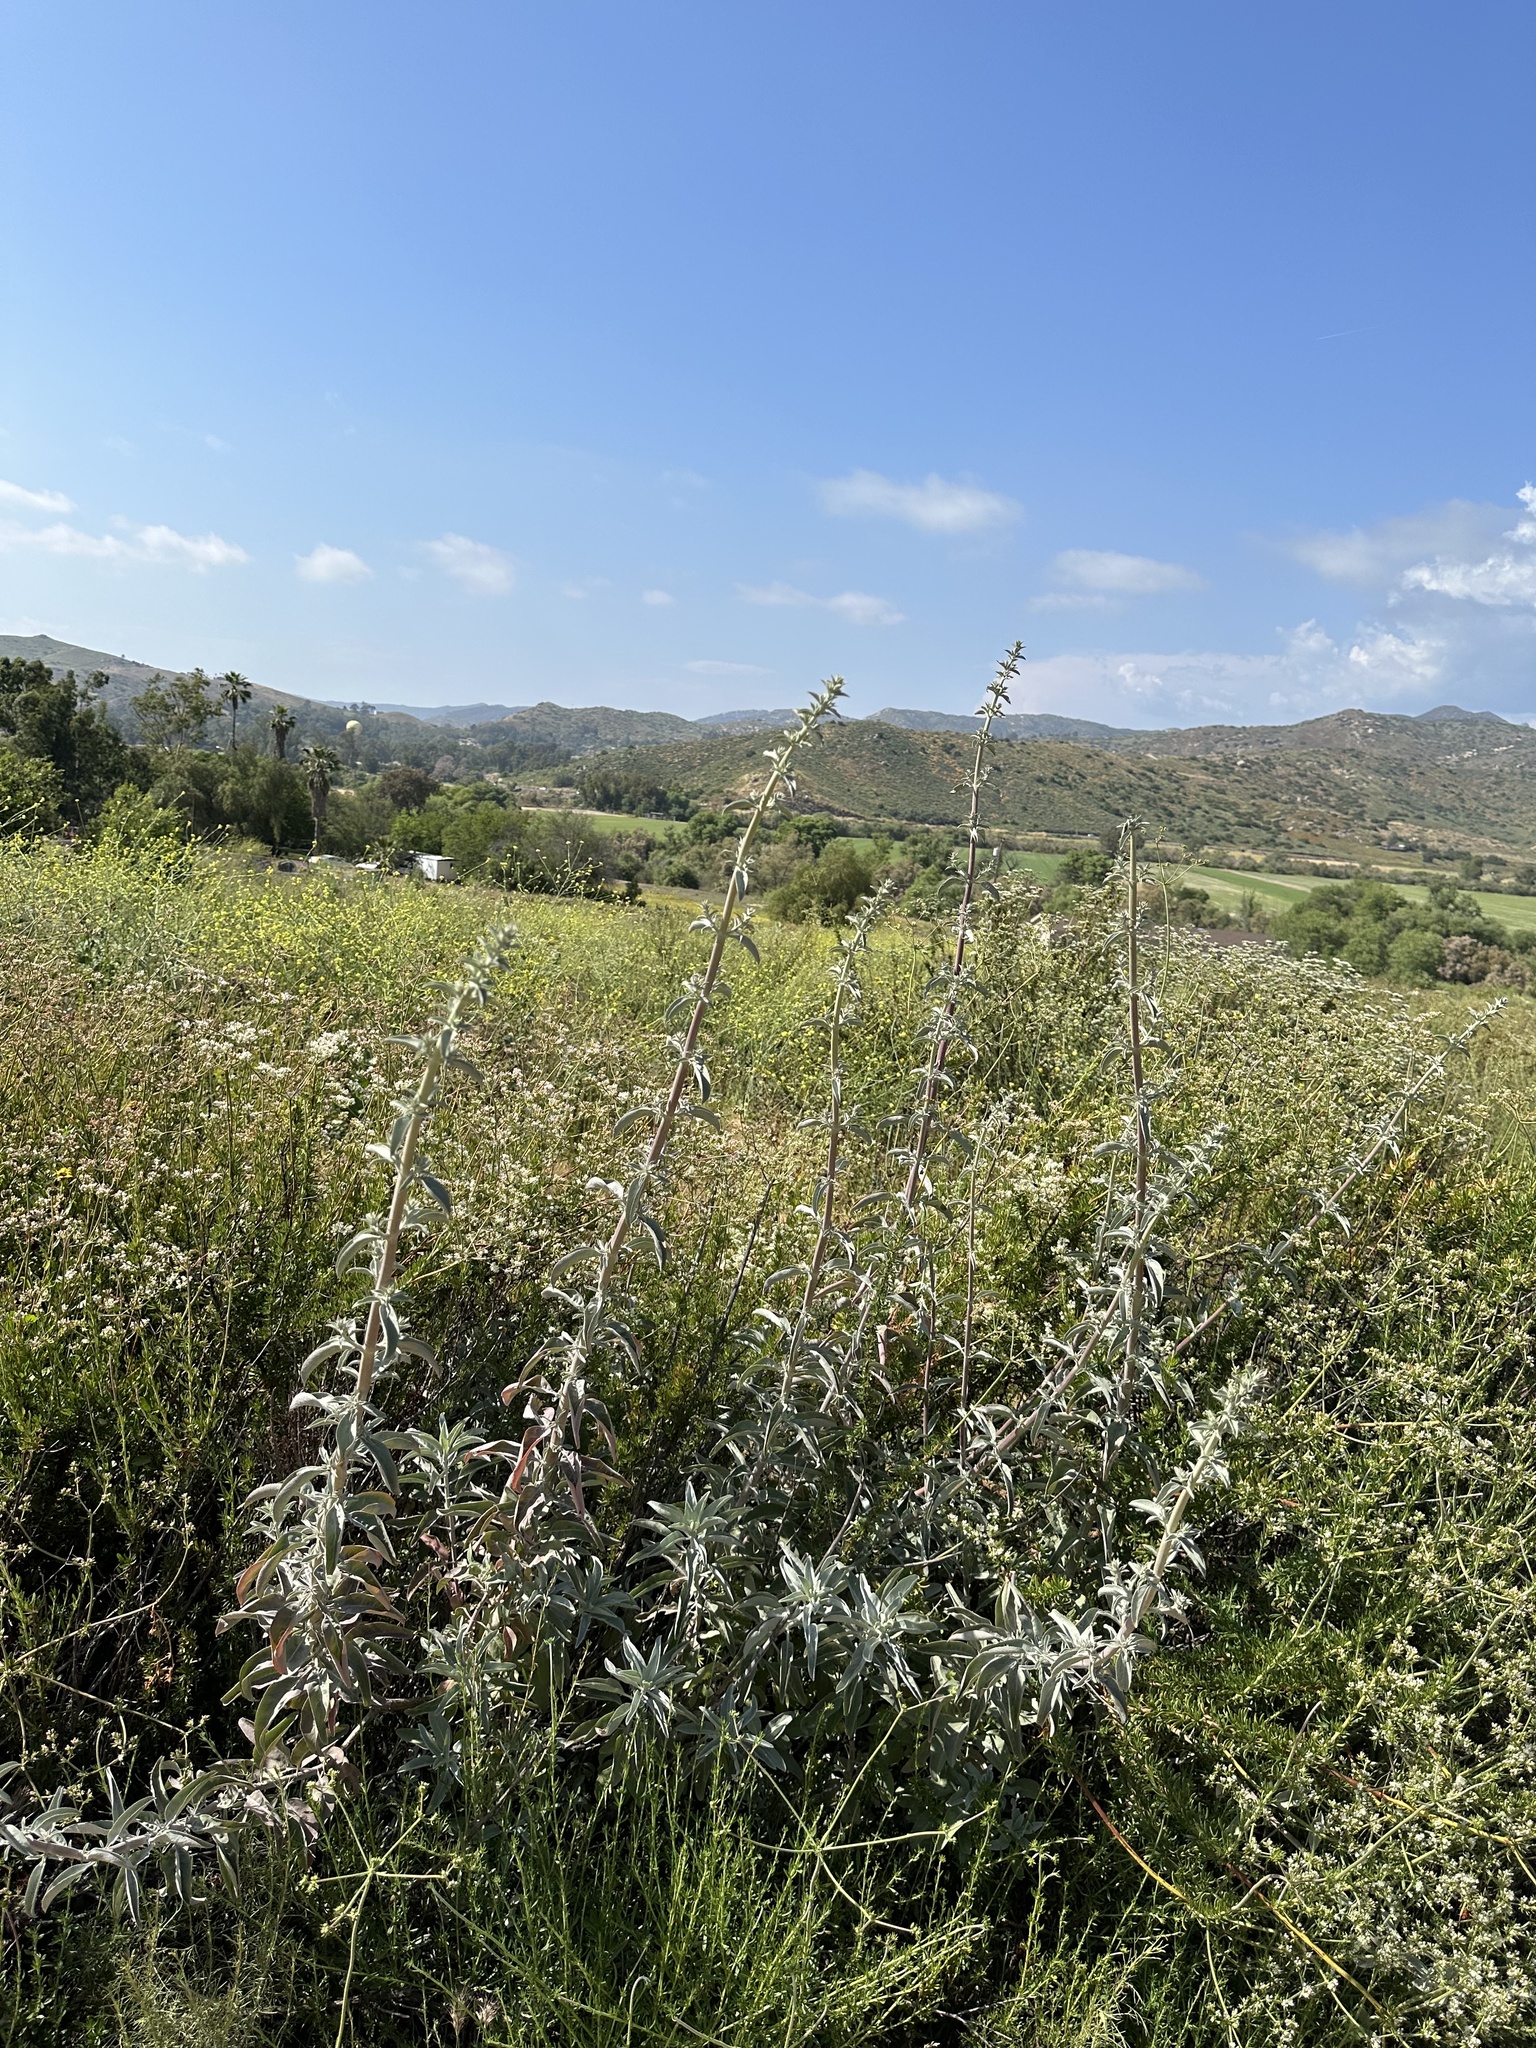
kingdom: Plantae
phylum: Tracheophyta
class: Magnoliopsida
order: Lamiales
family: Lamiaceae
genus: Salvia
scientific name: Salvia apiana
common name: White sage
